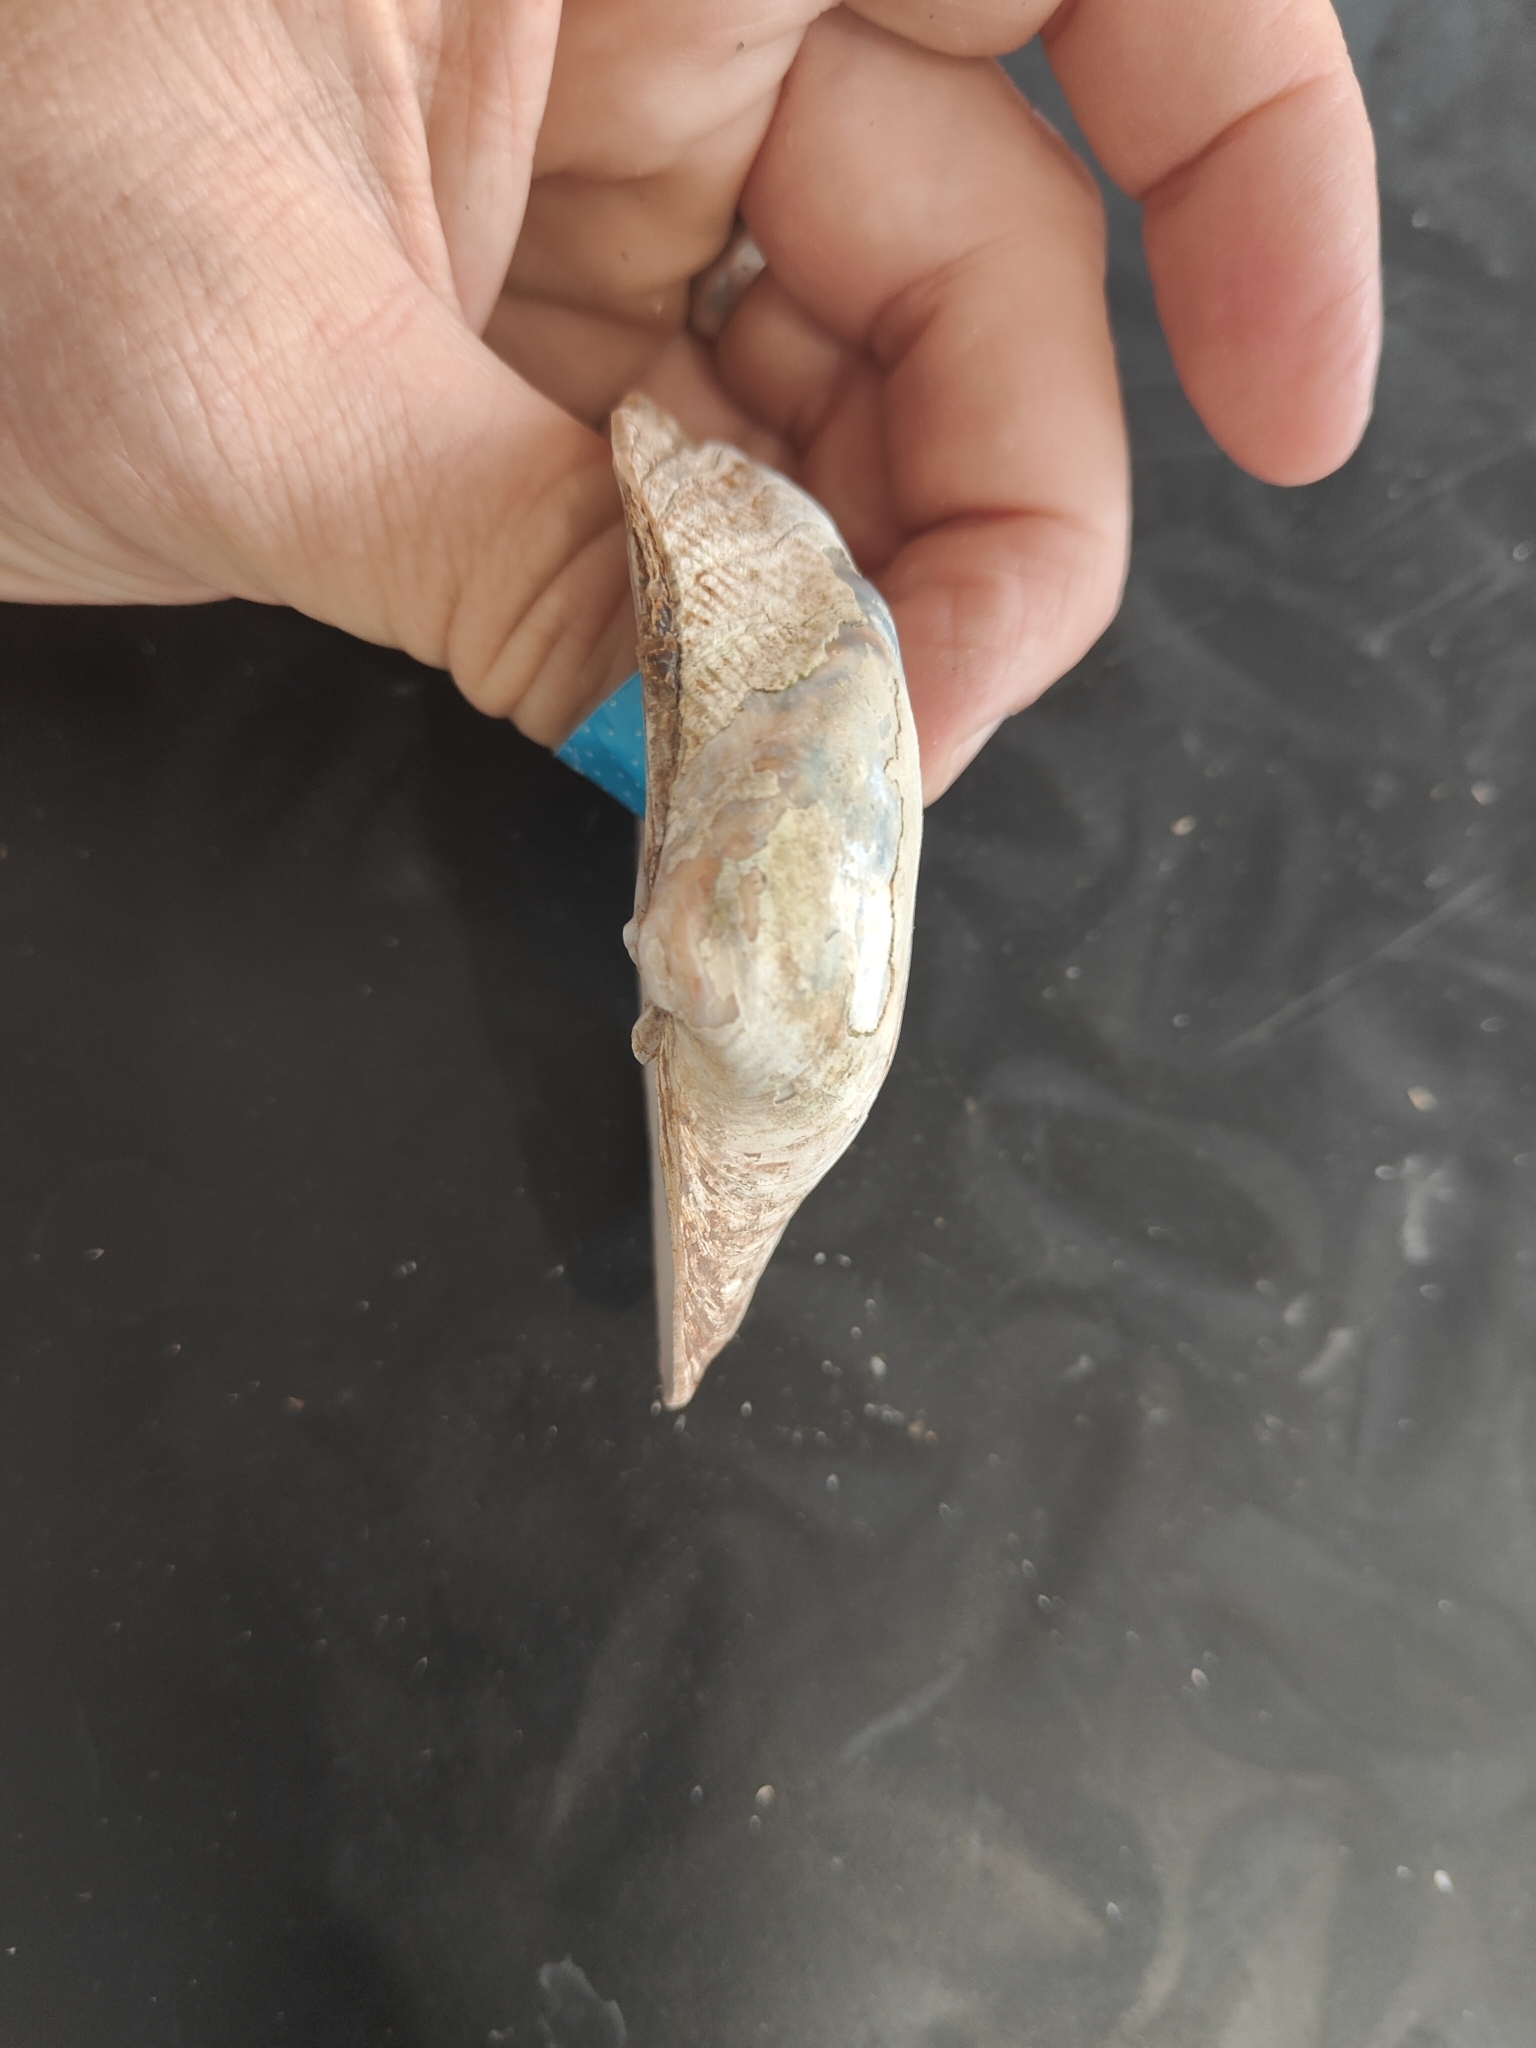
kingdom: Animalia
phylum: Mollusca
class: Bivalvia
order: Unionida
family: Unionidae
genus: Alasmidonta
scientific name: Alasmidonta marginata
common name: Elktoe
